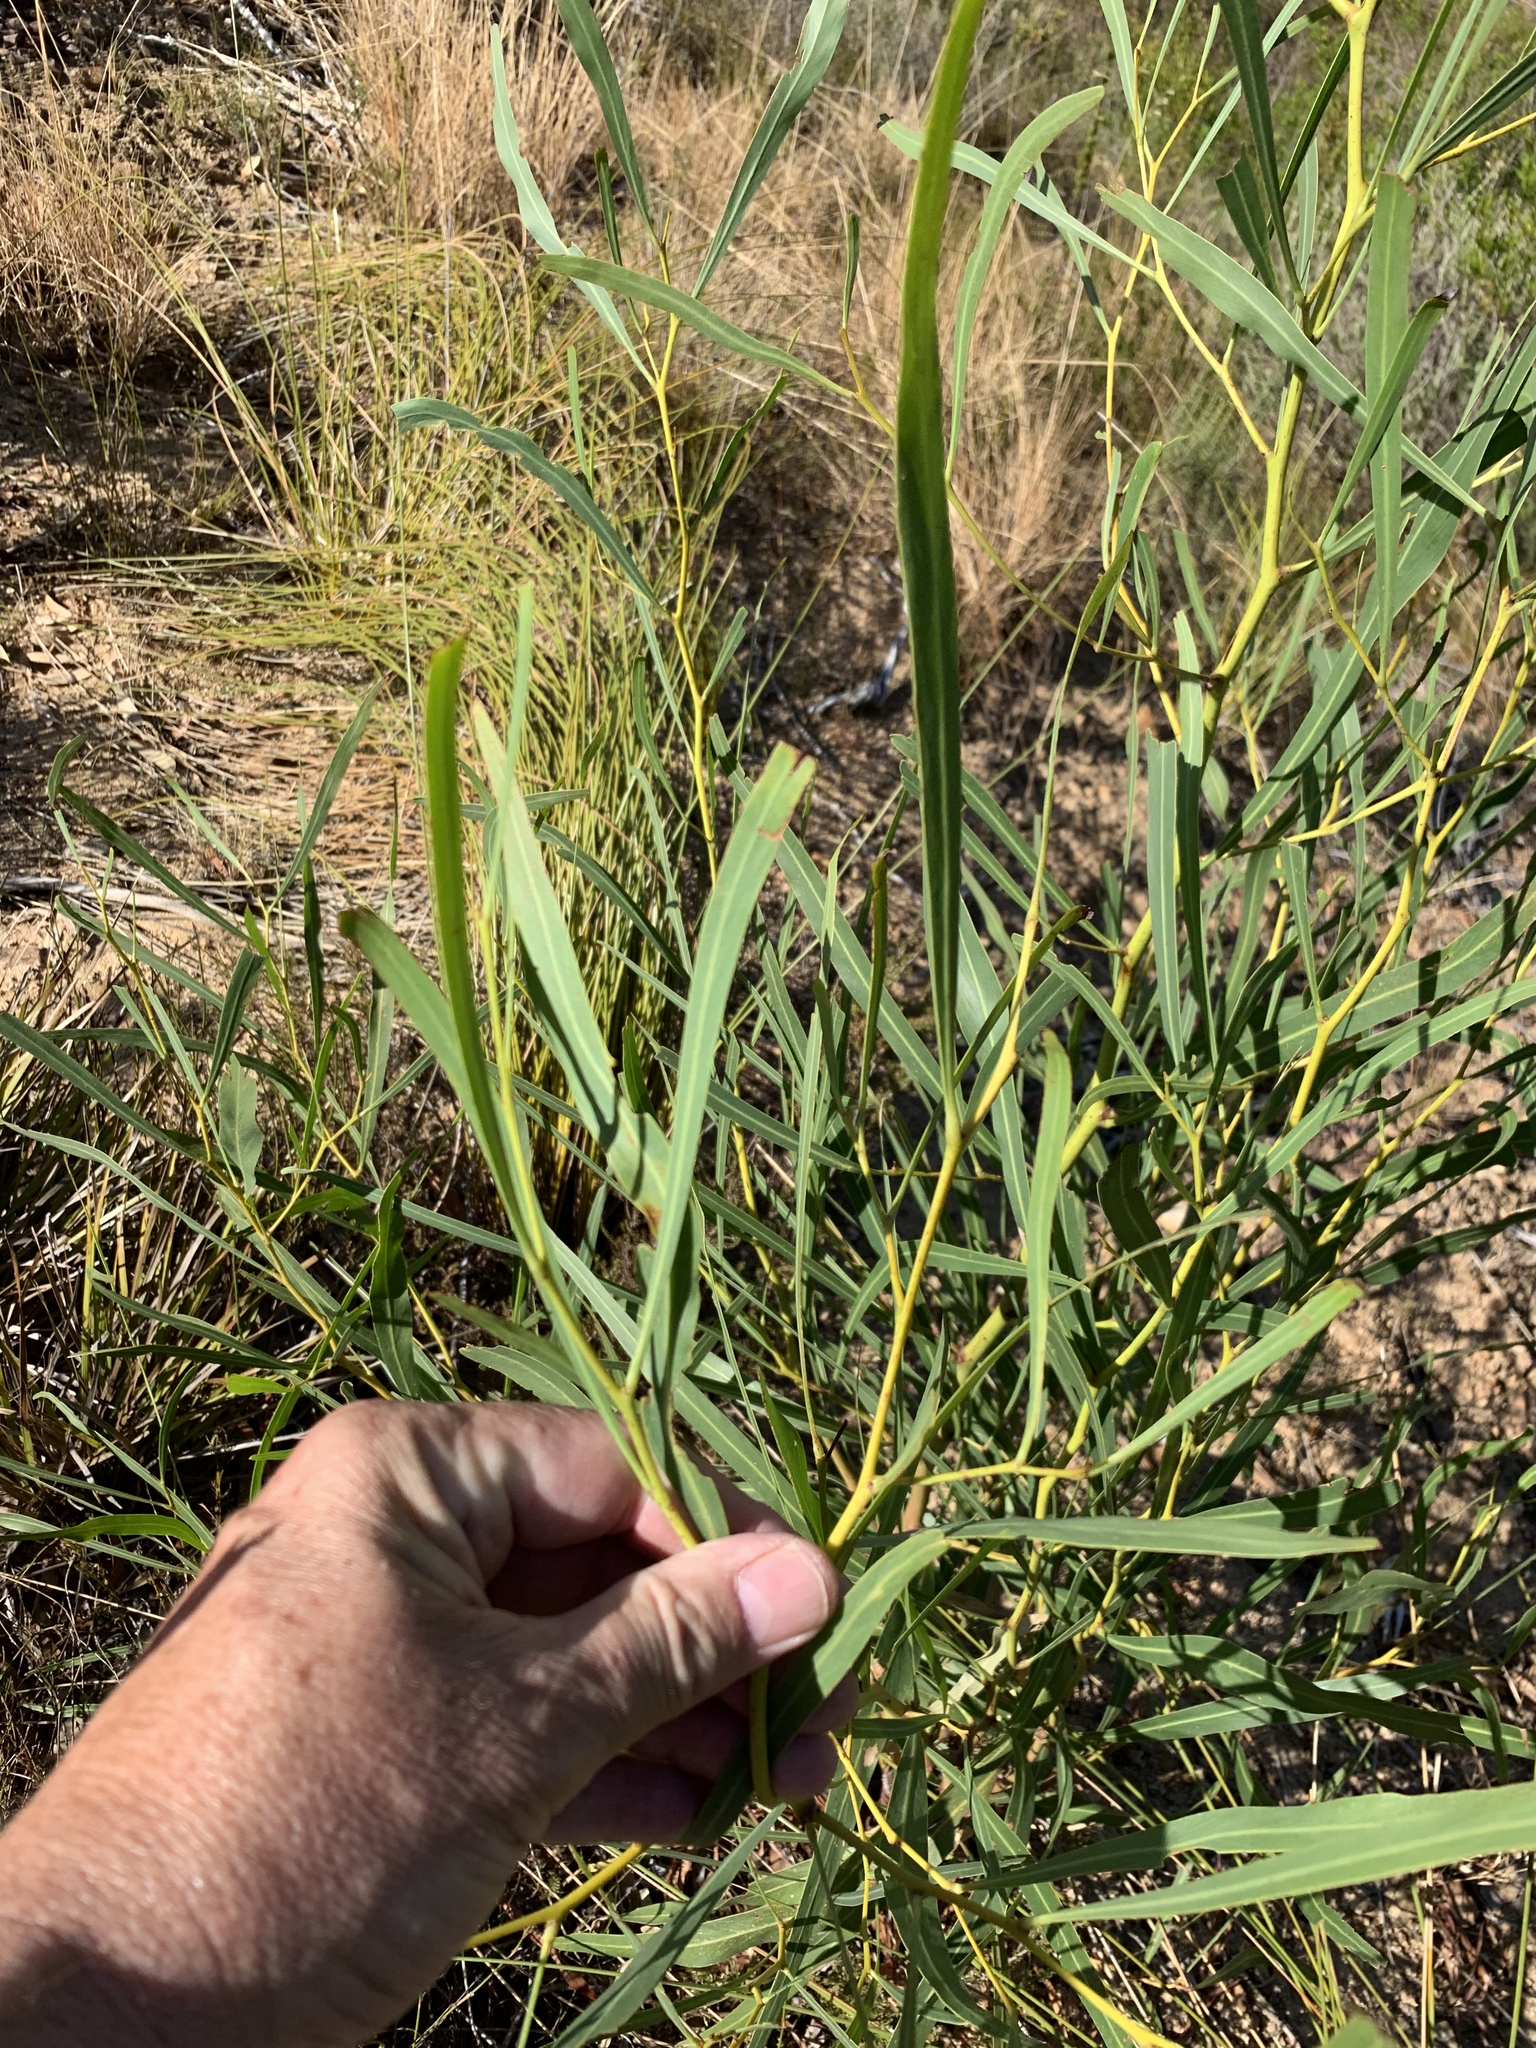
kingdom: Plantae
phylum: Tracheophyta
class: Magnoliopsida
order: Fabales
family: Fabaceae
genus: Acacia
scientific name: Acacia saligna
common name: Orange wattle
